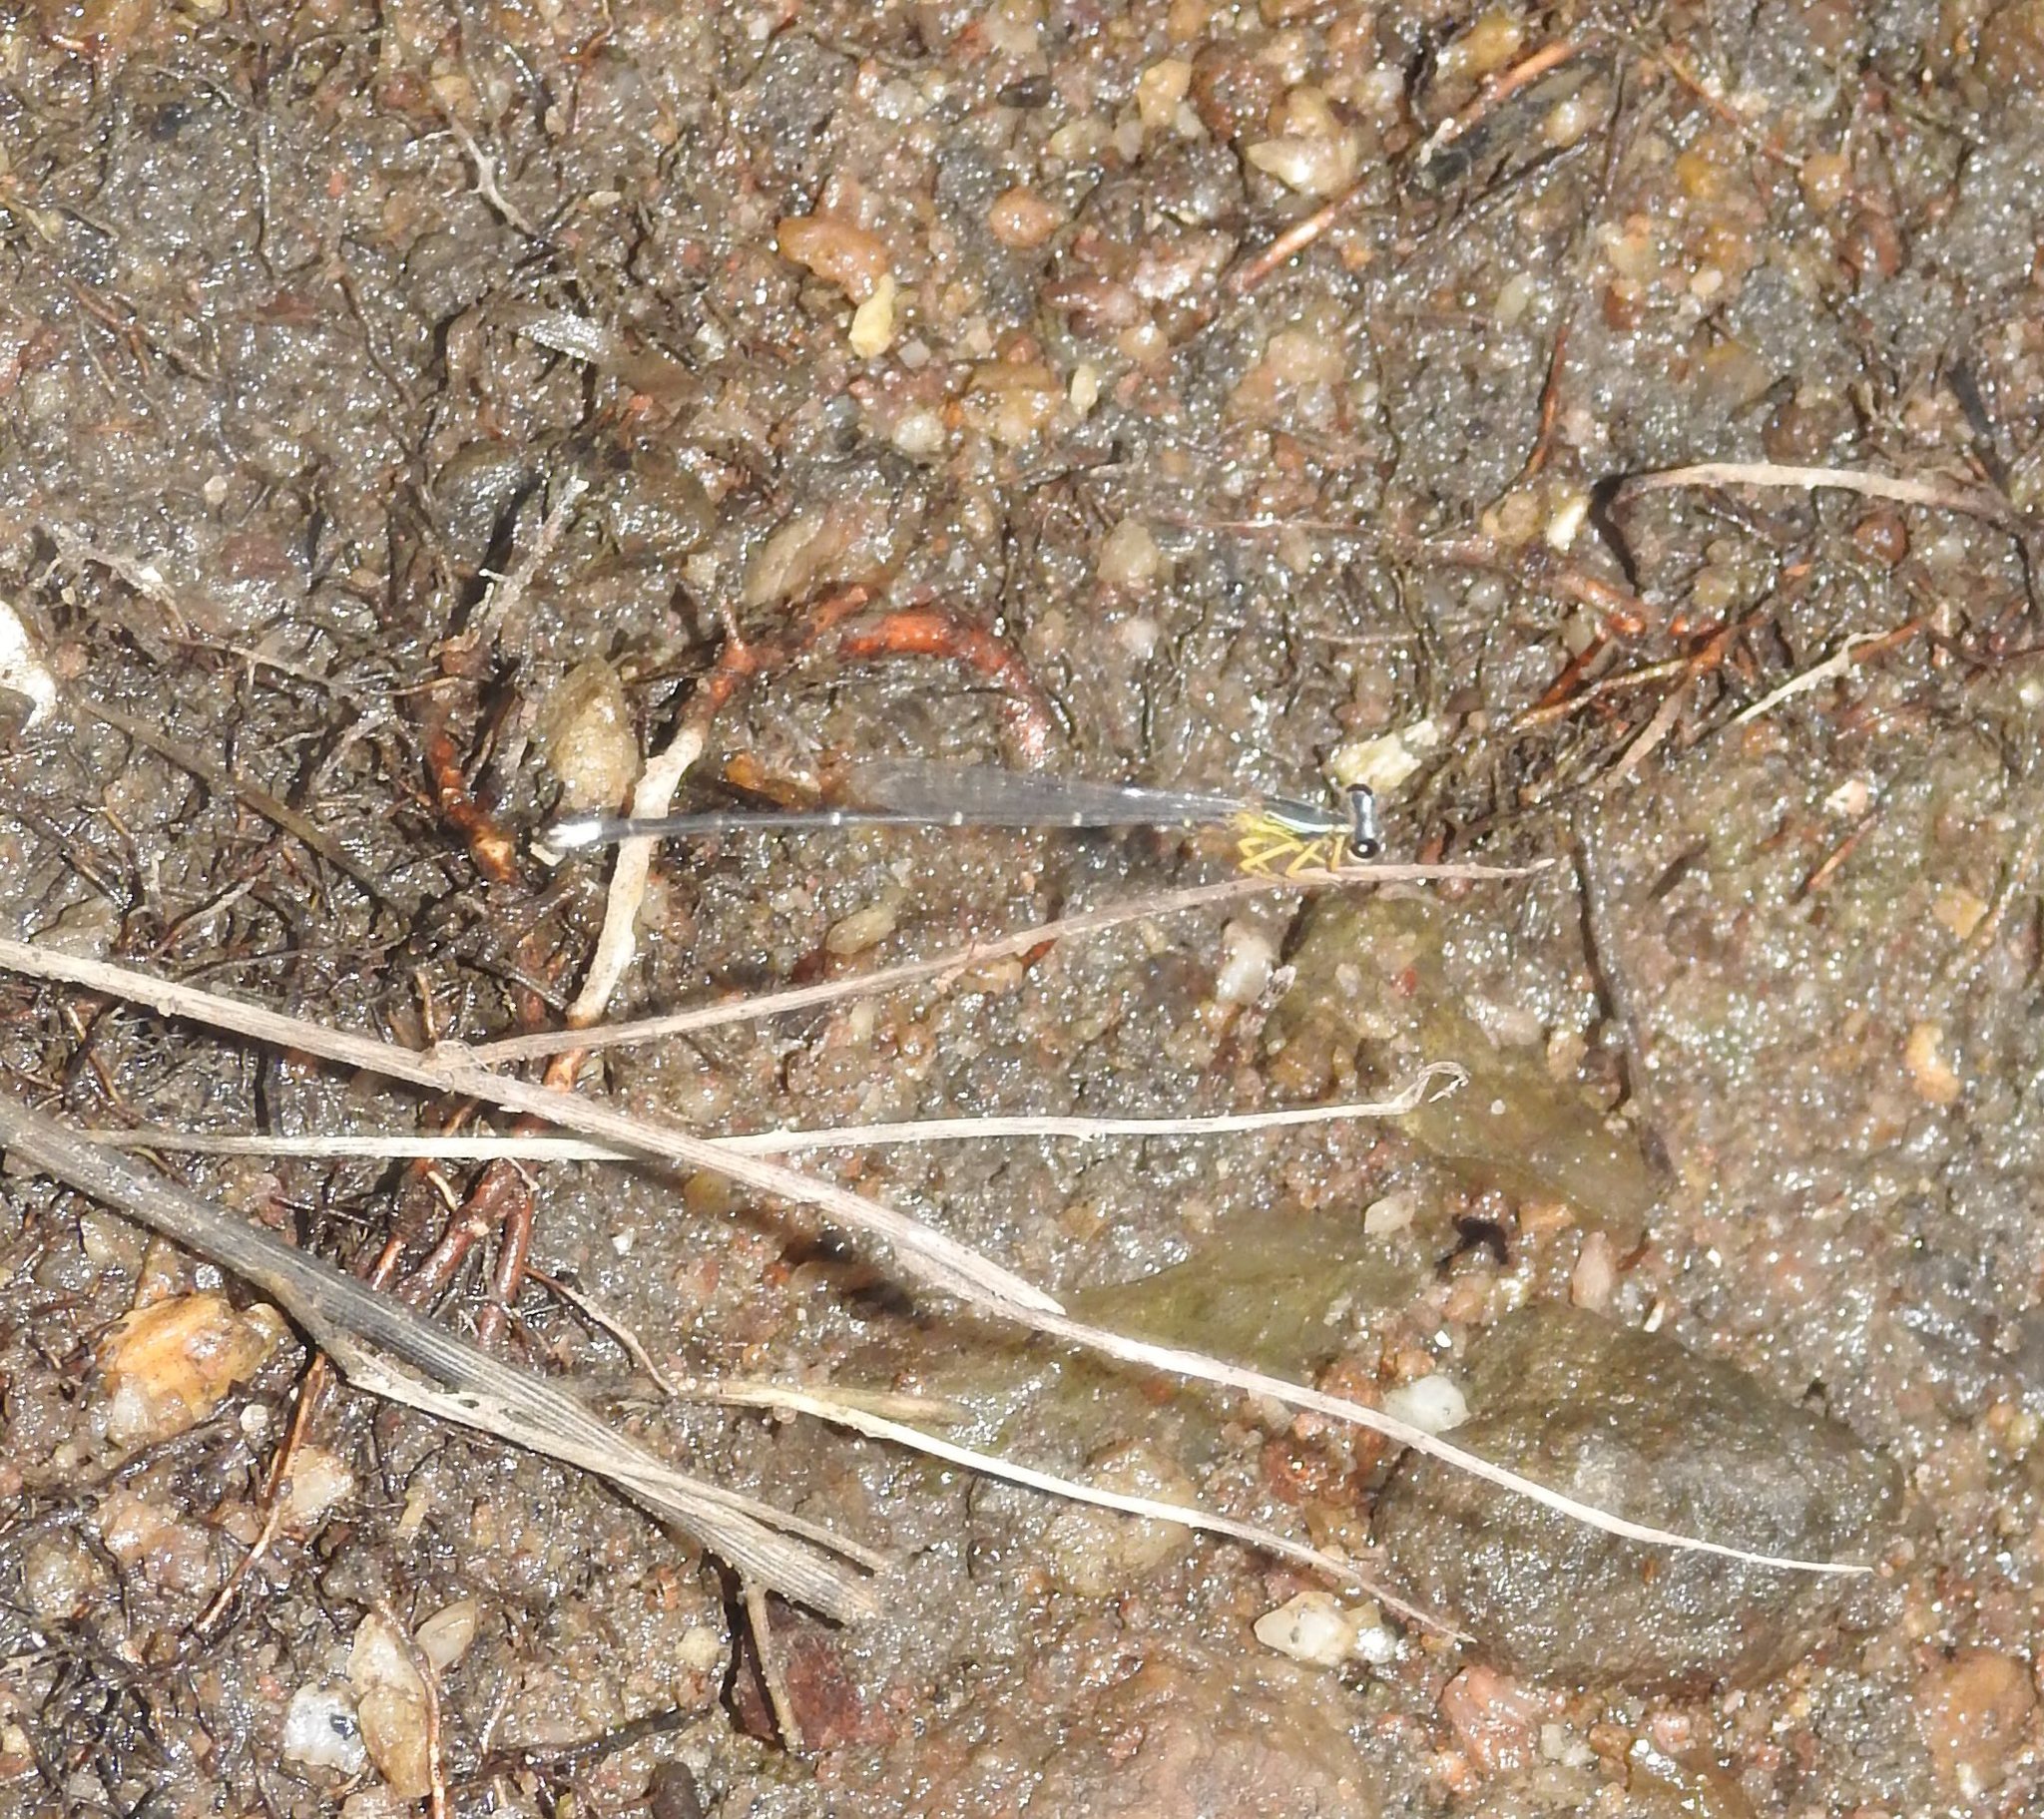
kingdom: Animalia
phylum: Arthropoda
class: Insecta
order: Odonata
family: Platycnemididae
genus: Copera
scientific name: Copera vittata
